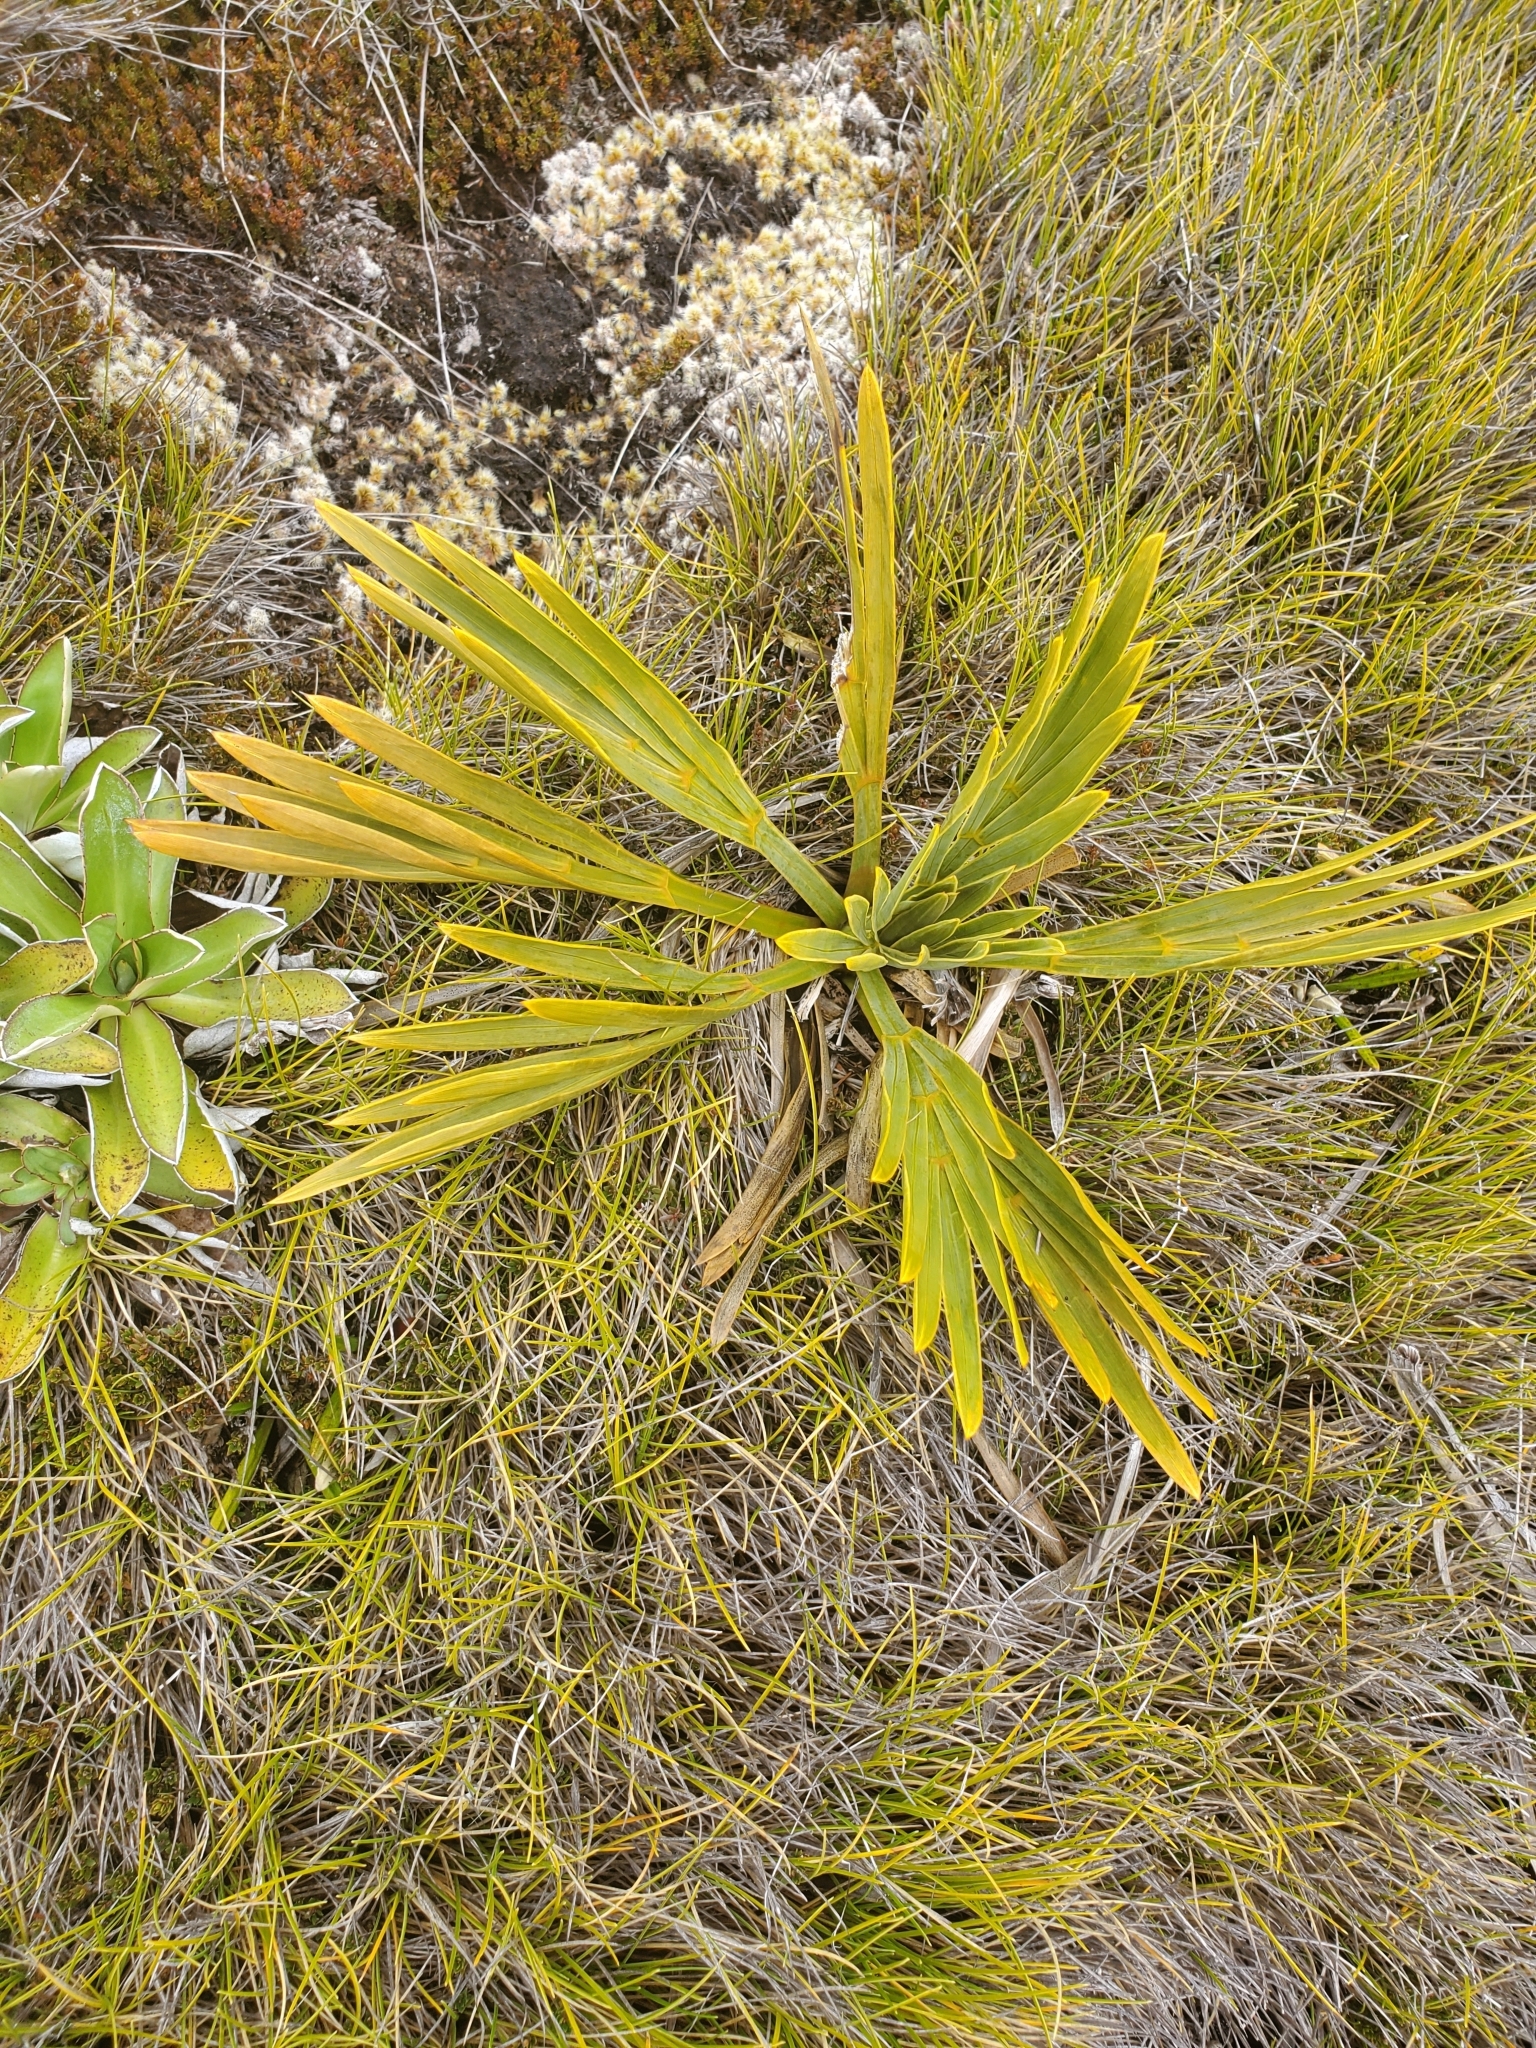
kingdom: Plantae
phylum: Tracheophyta
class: Magnoliopsida
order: Apiales
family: Apiaceae
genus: Aciphylla
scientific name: Aciphylla ferox
